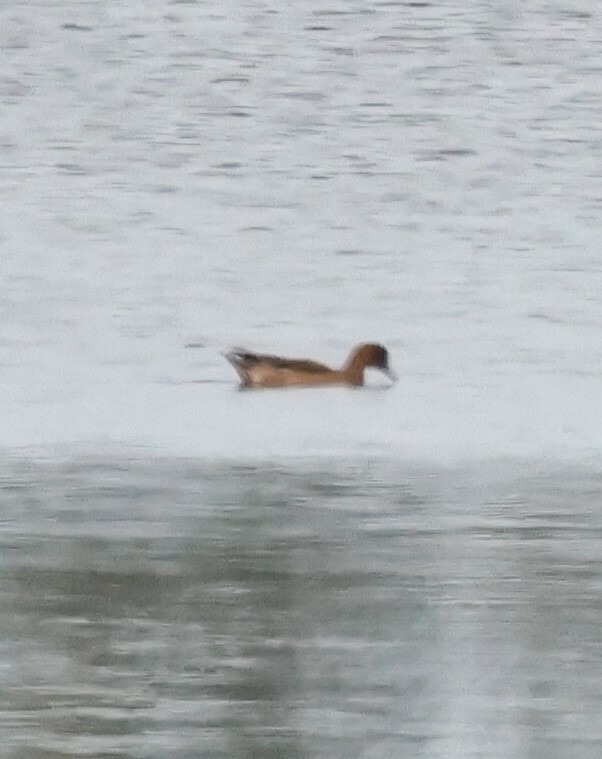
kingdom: Animalia
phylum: Chordata
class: Aves
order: Anseriformes
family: Anatidae
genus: Mareca
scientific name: Mareca penelope
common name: Eurasian wigeon
